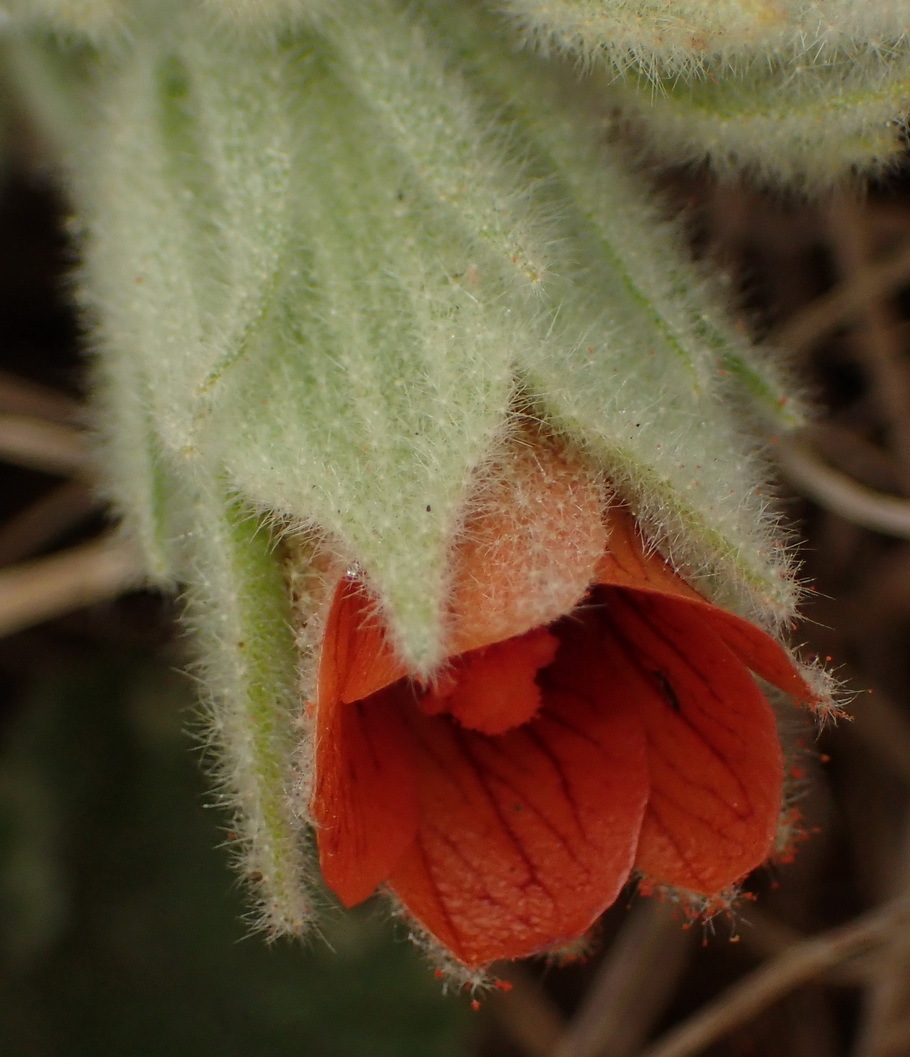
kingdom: Plantae
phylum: Tracheophyta
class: Magnoliopsida
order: Malvales
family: Malvaceae
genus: Radyera
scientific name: Radyera urens
